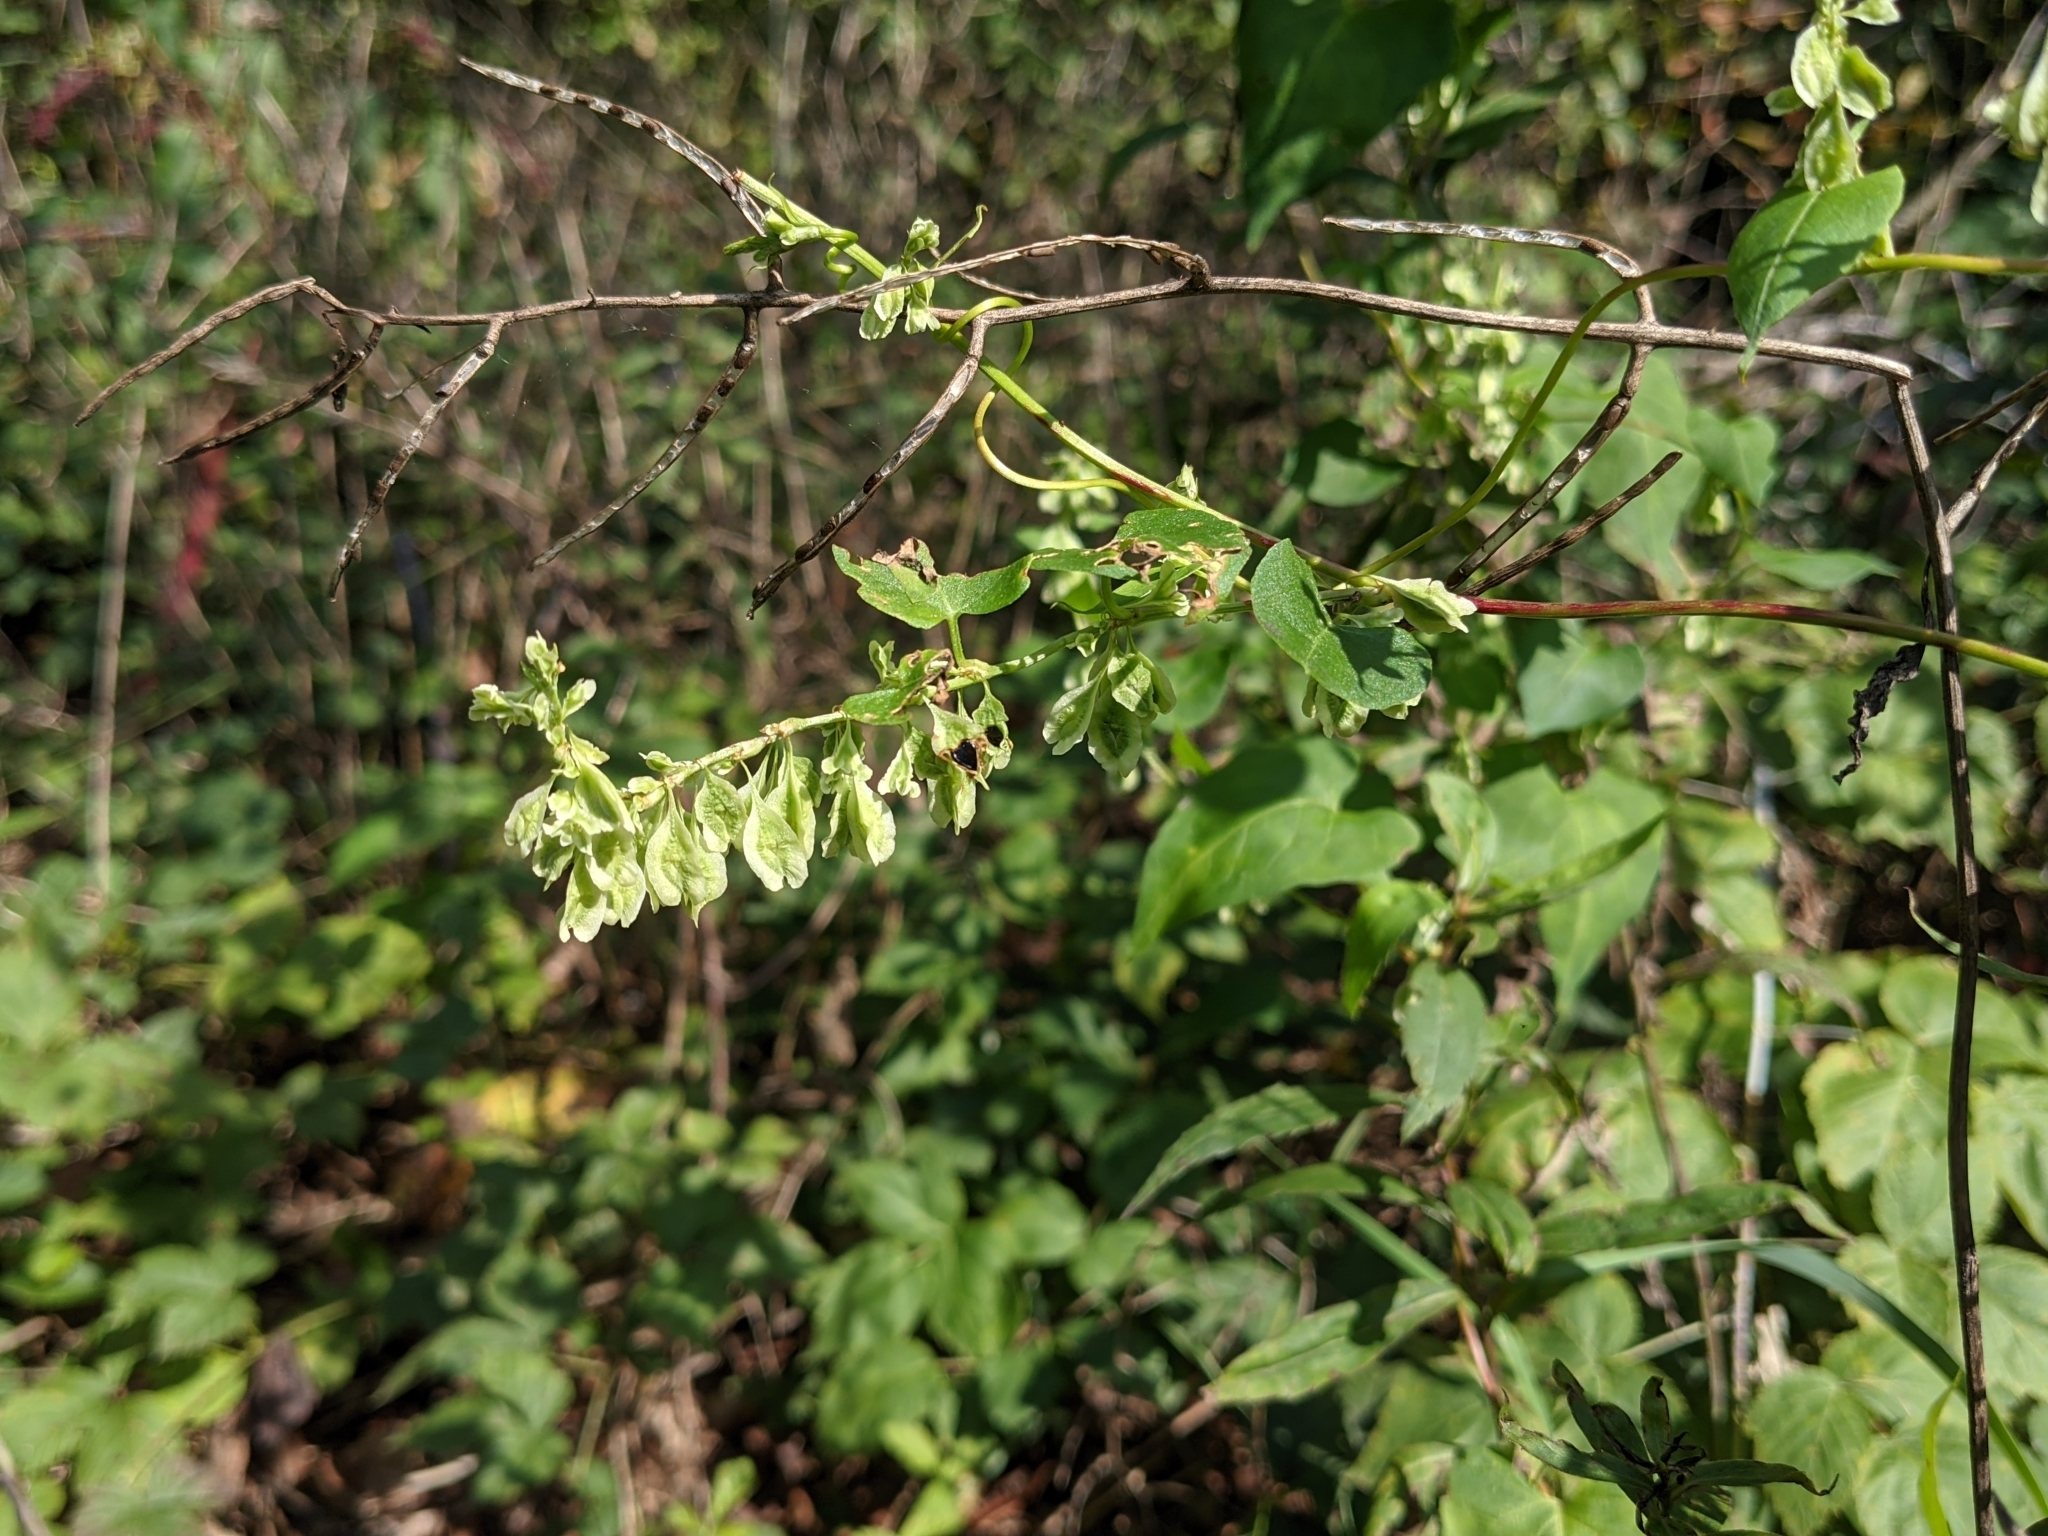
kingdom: Plantae
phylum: Tracheophyta
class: Magnoliopsida
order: Caryophyllales
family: Polygonaceae
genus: Fallopia
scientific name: Fallopia scandens
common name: Climbing false buckwheat
